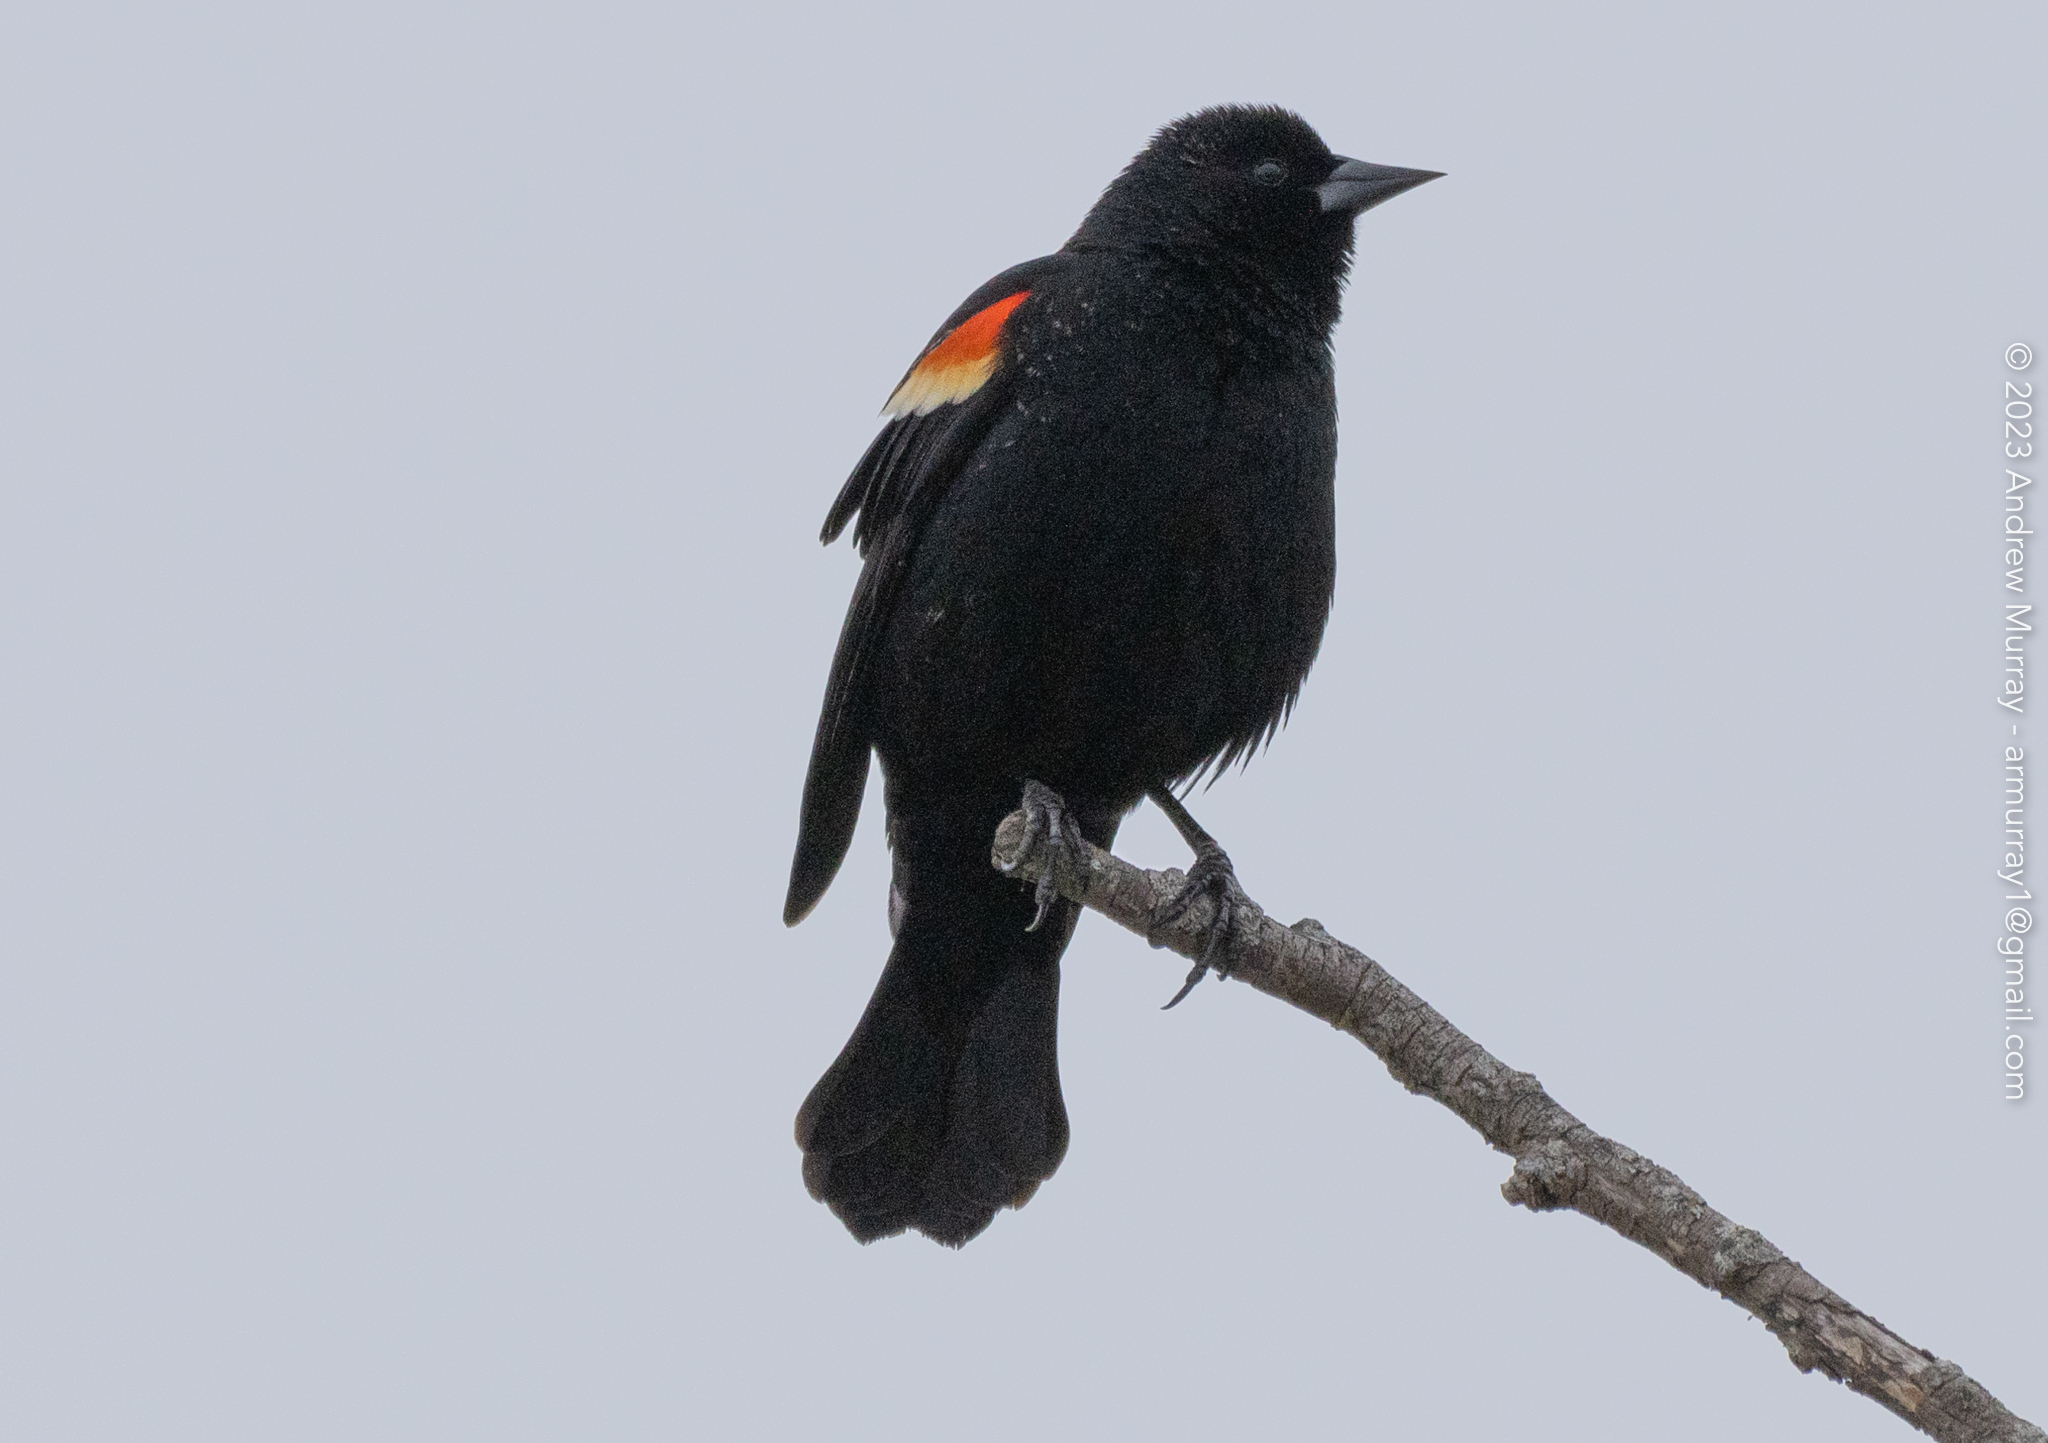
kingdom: Animalia
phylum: Chordata
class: Aves
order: Passeriformes
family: Icteridae
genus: Agelaius
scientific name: Agelaius phoeniceus
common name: Red-winged blackbird
